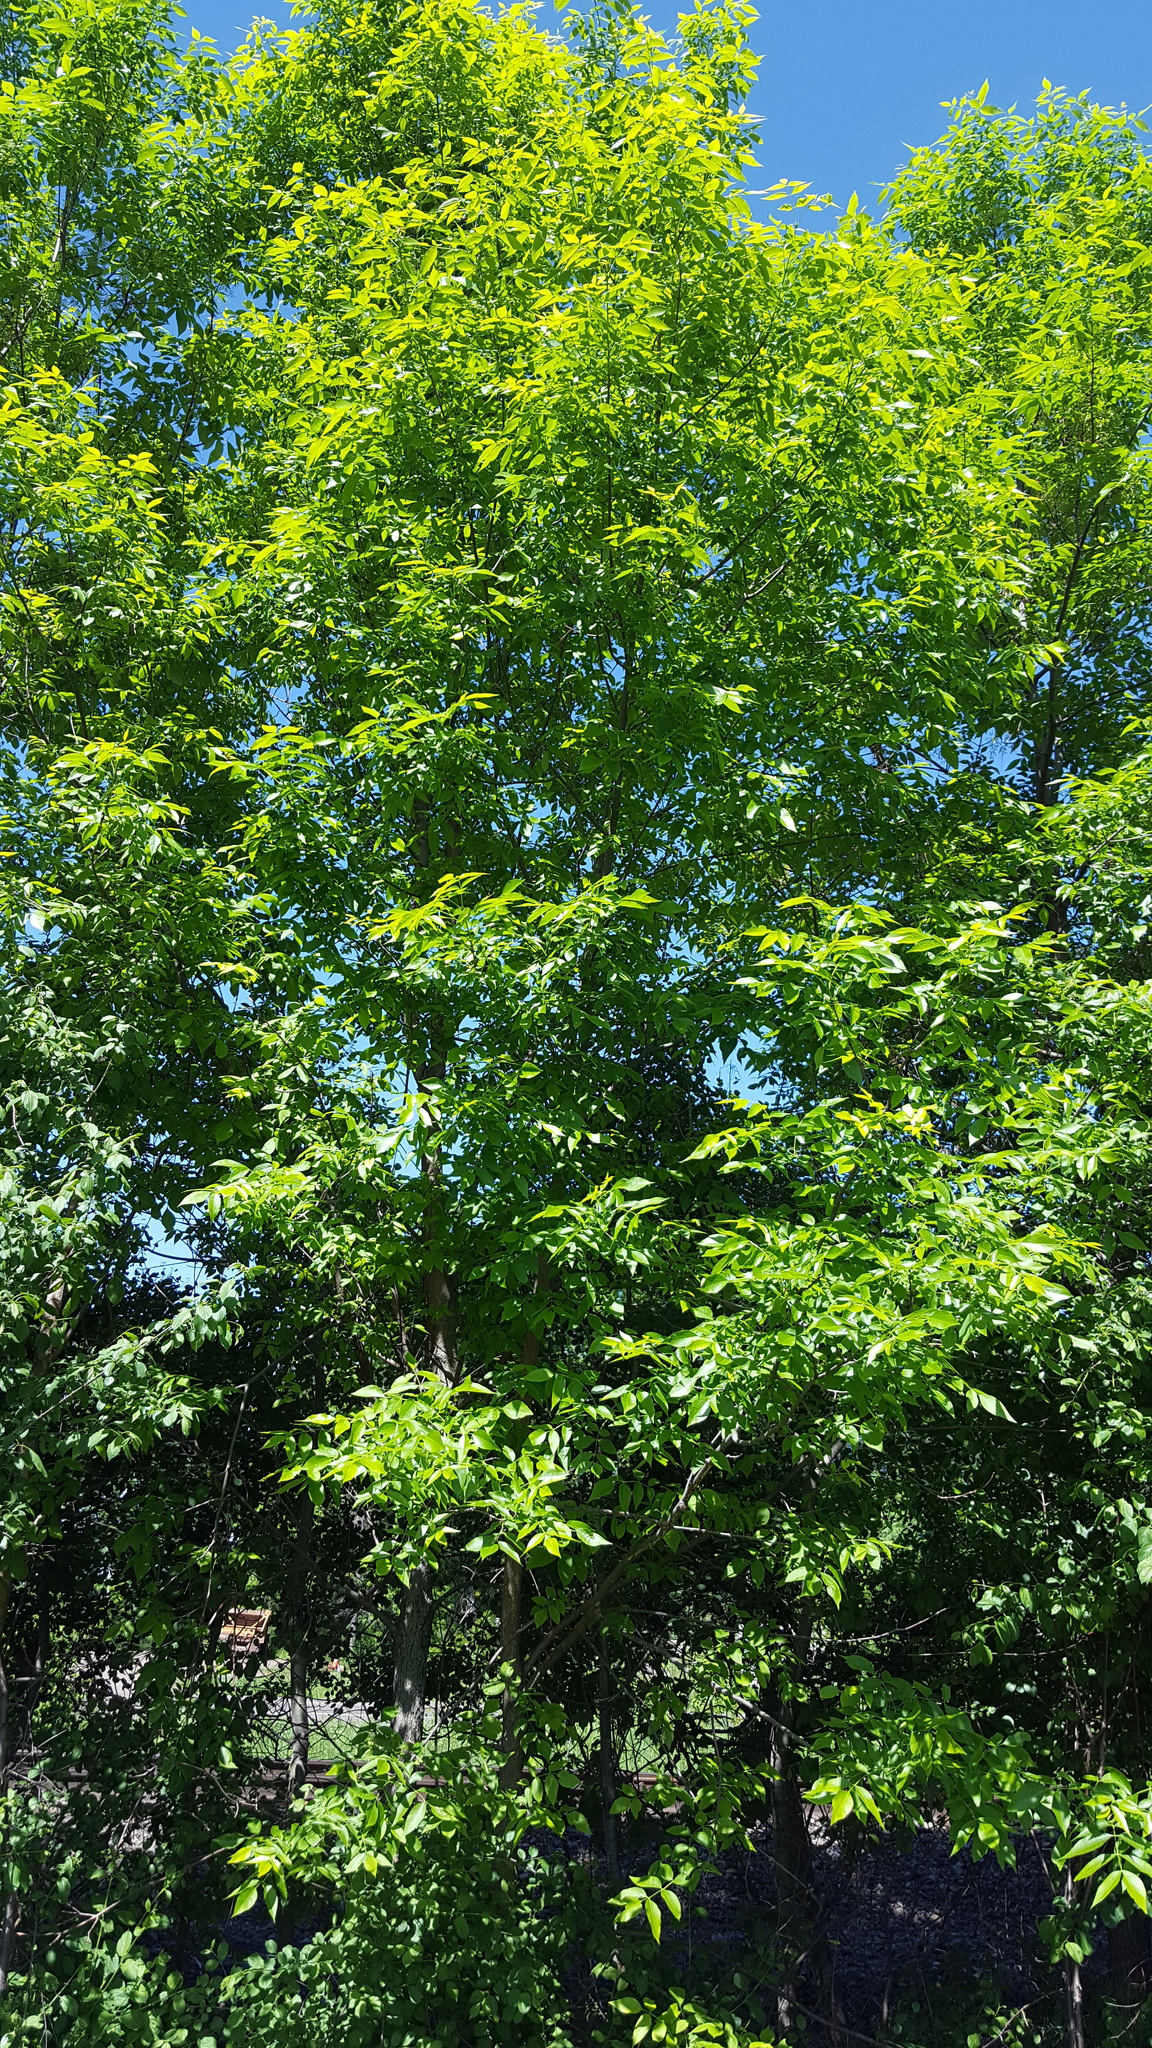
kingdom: Plantae
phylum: Tracheophyta
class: Magnoliopsida
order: Lamiales
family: Oleaceae
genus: Fraxinus
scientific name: Fraxinus pennsylvanica
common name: Green ash
